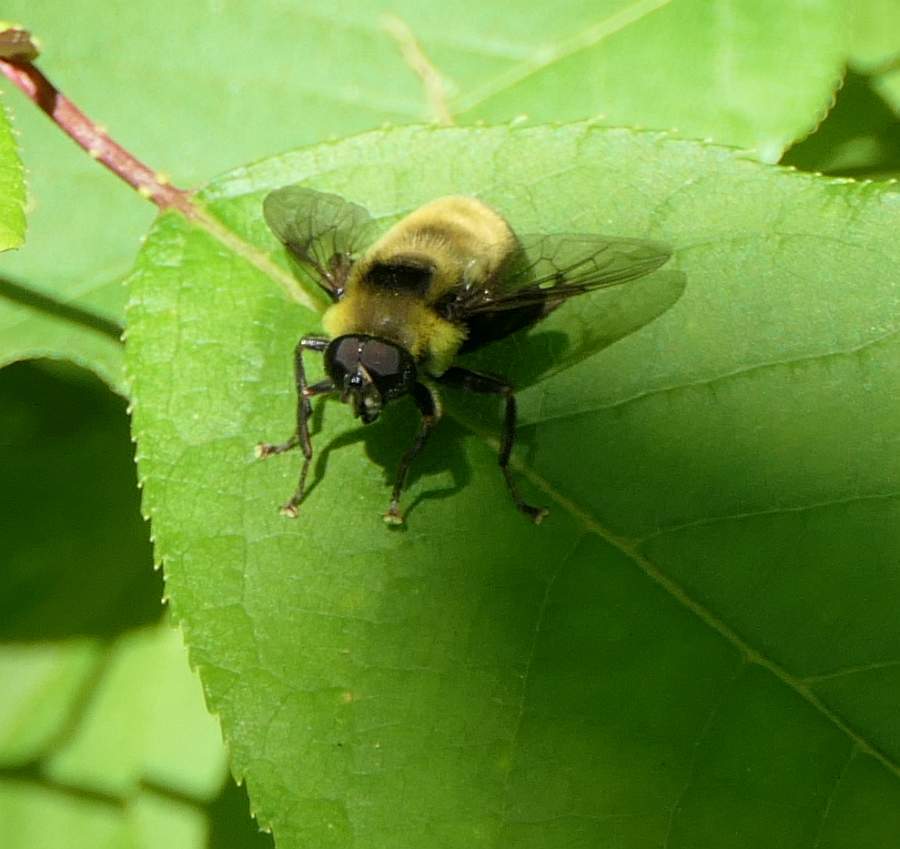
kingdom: Animalia
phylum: Arthropoda
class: Insecta
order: Diptera
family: Syrphidae
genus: Imatisma
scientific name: Imatisma posticata
